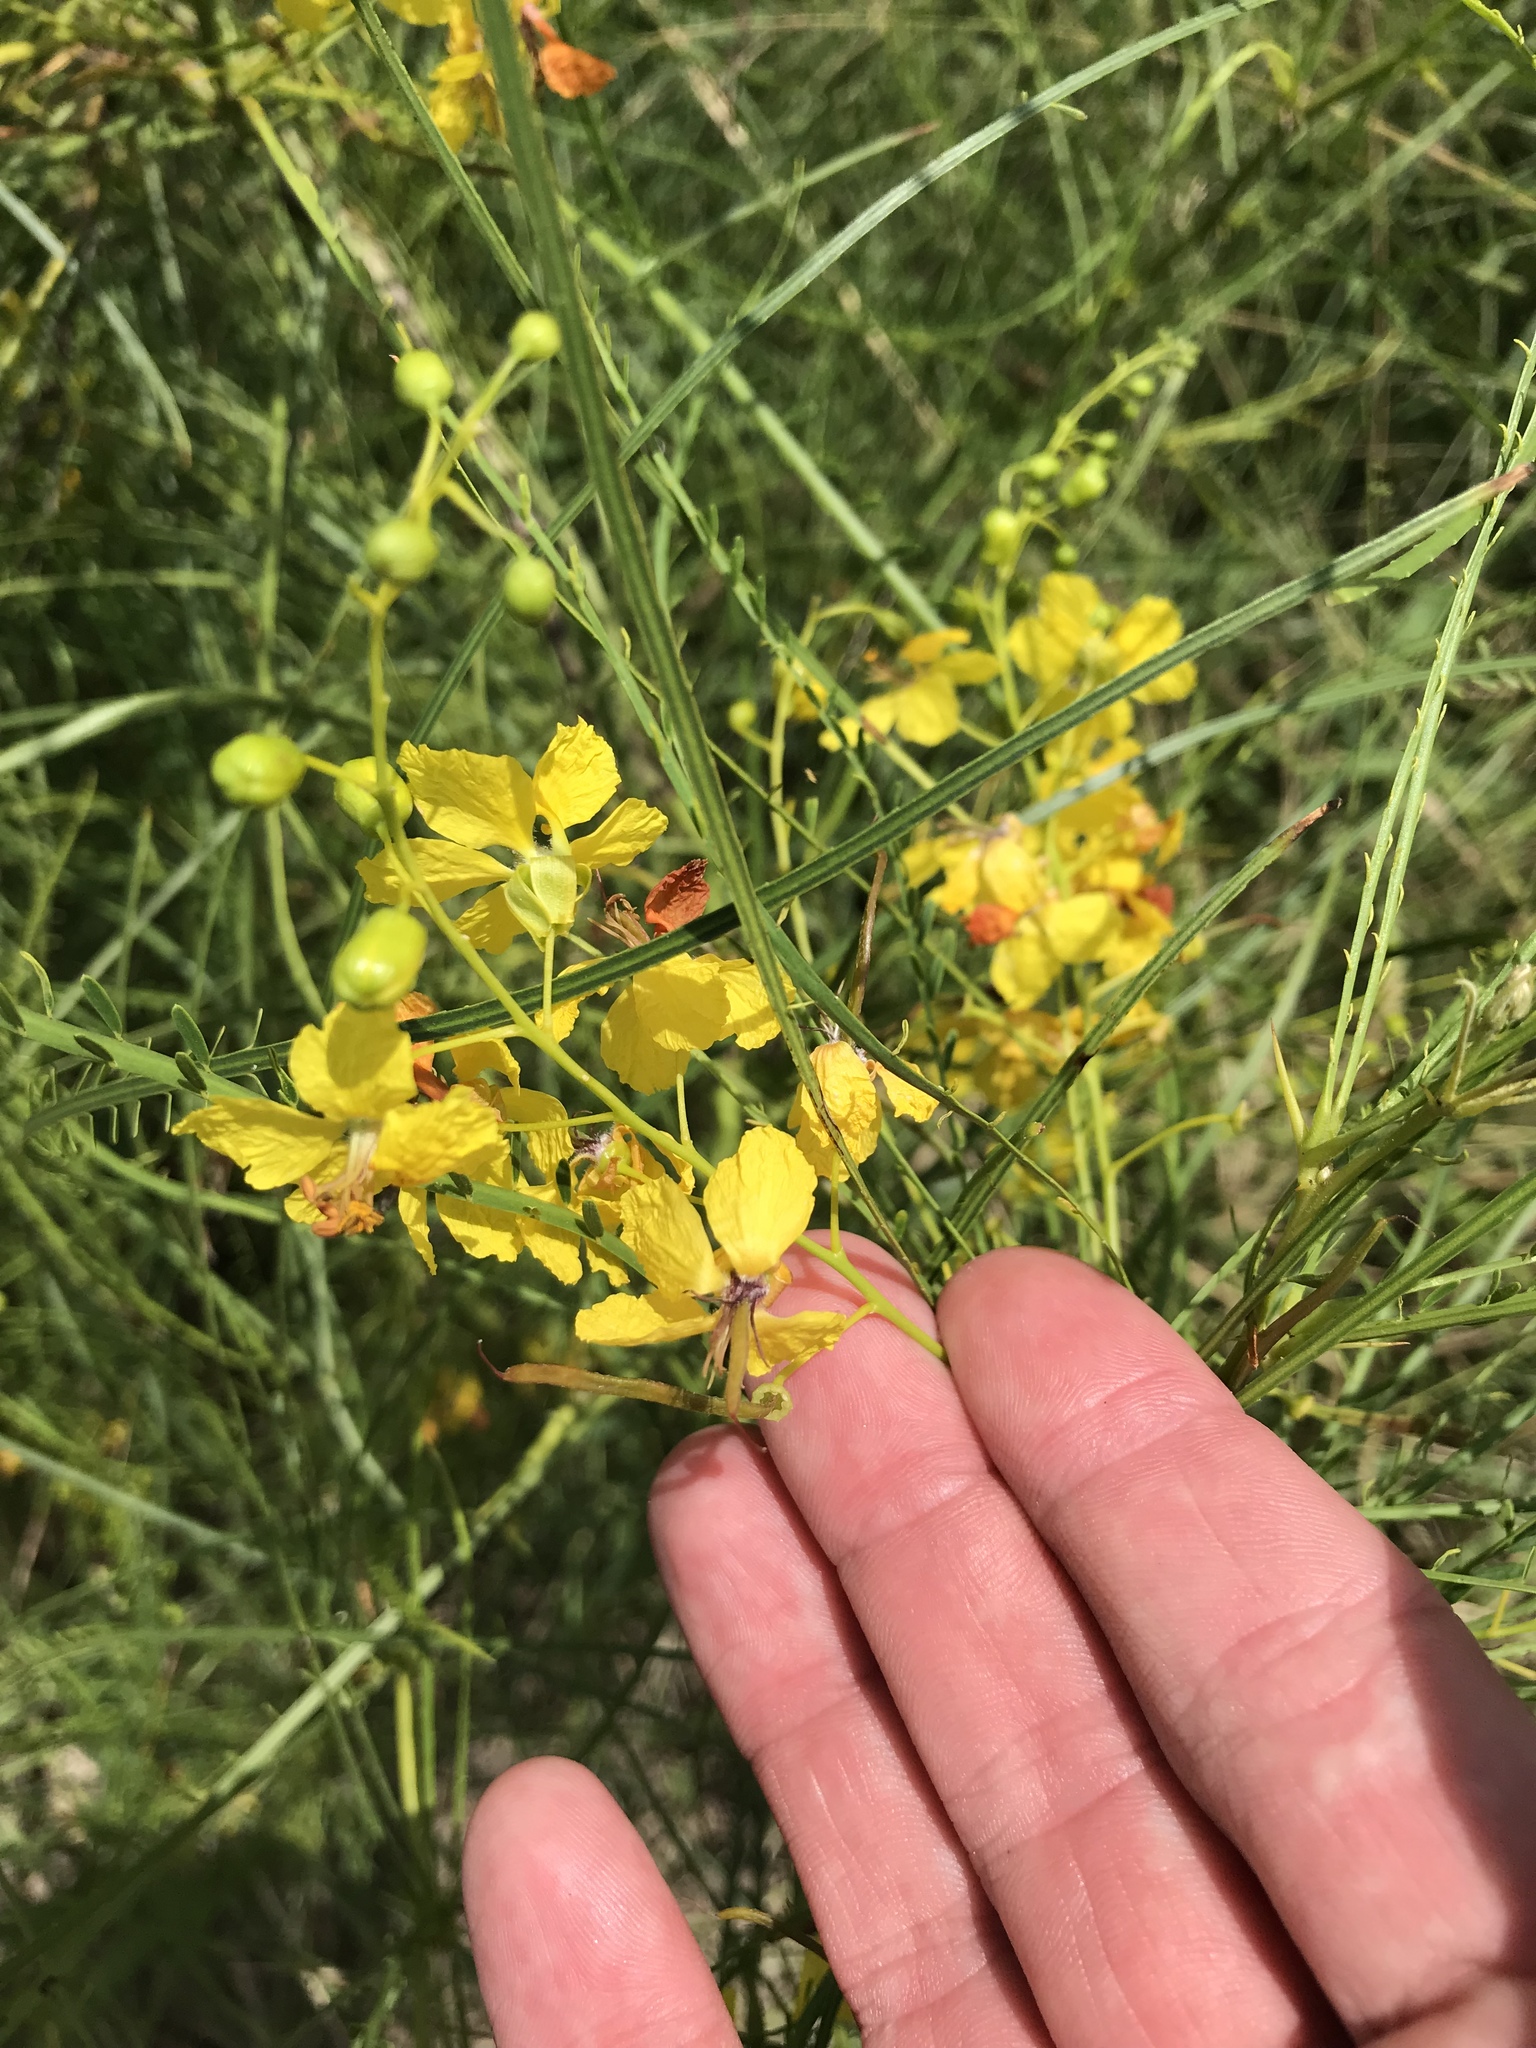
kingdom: Plantae
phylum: Tracheophyta
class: Magnoliopsida
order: Fabales
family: Fabaceae
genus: Parkinsonia
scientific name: Parkinsonia aculeata
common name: Jerusalem thorn
